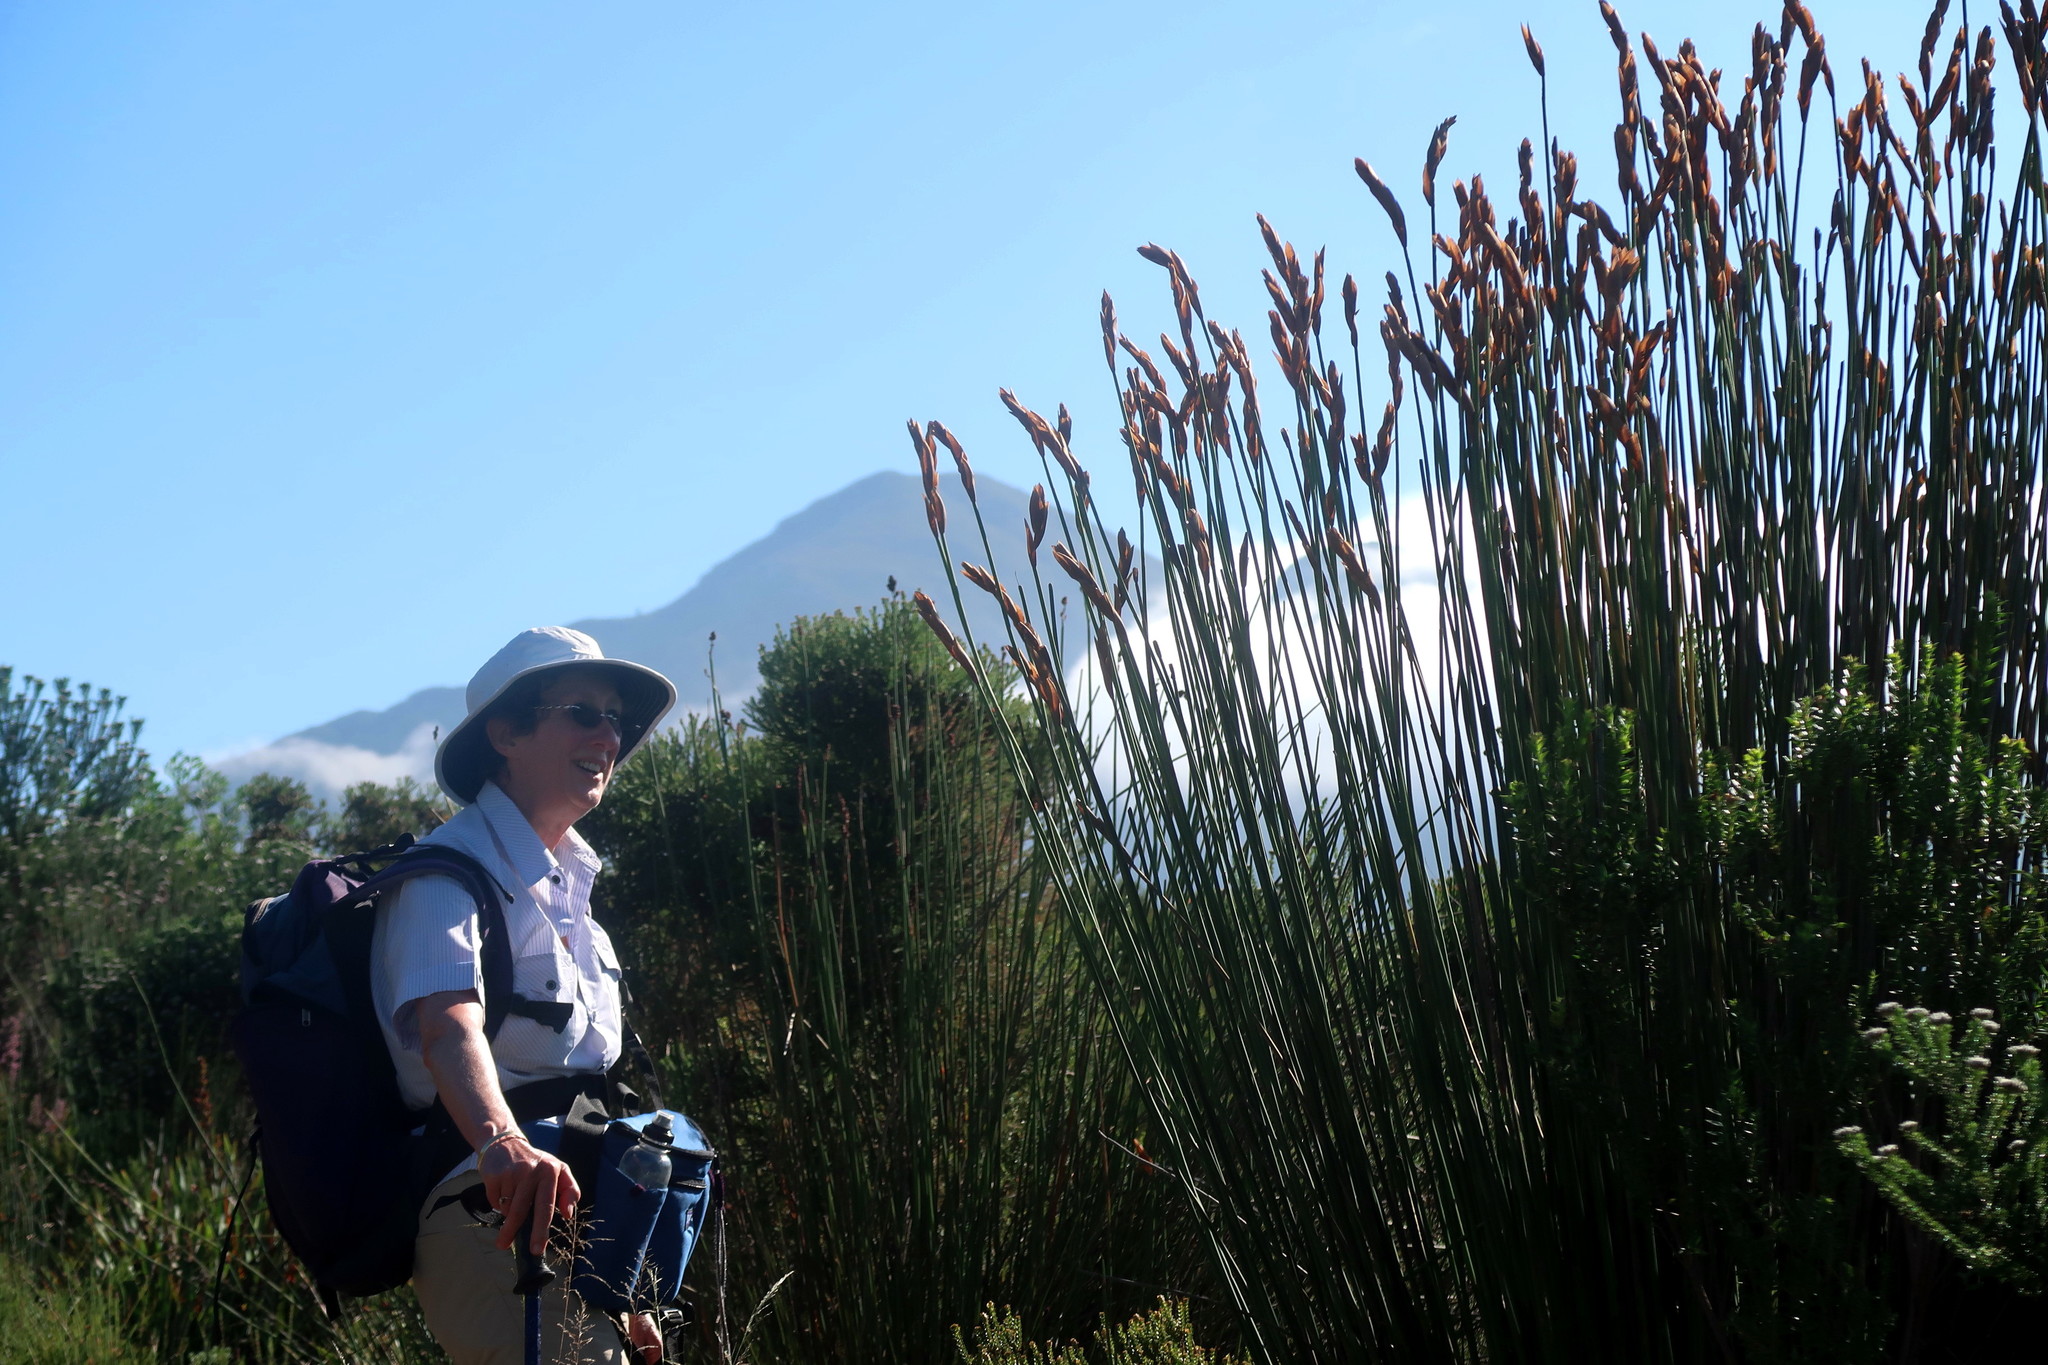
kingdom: Plantae
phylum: Tracheophyta
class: Liliopsida
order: Poales
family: Restionaceae
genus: Elegia
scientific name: Elegia thyrsoidea
